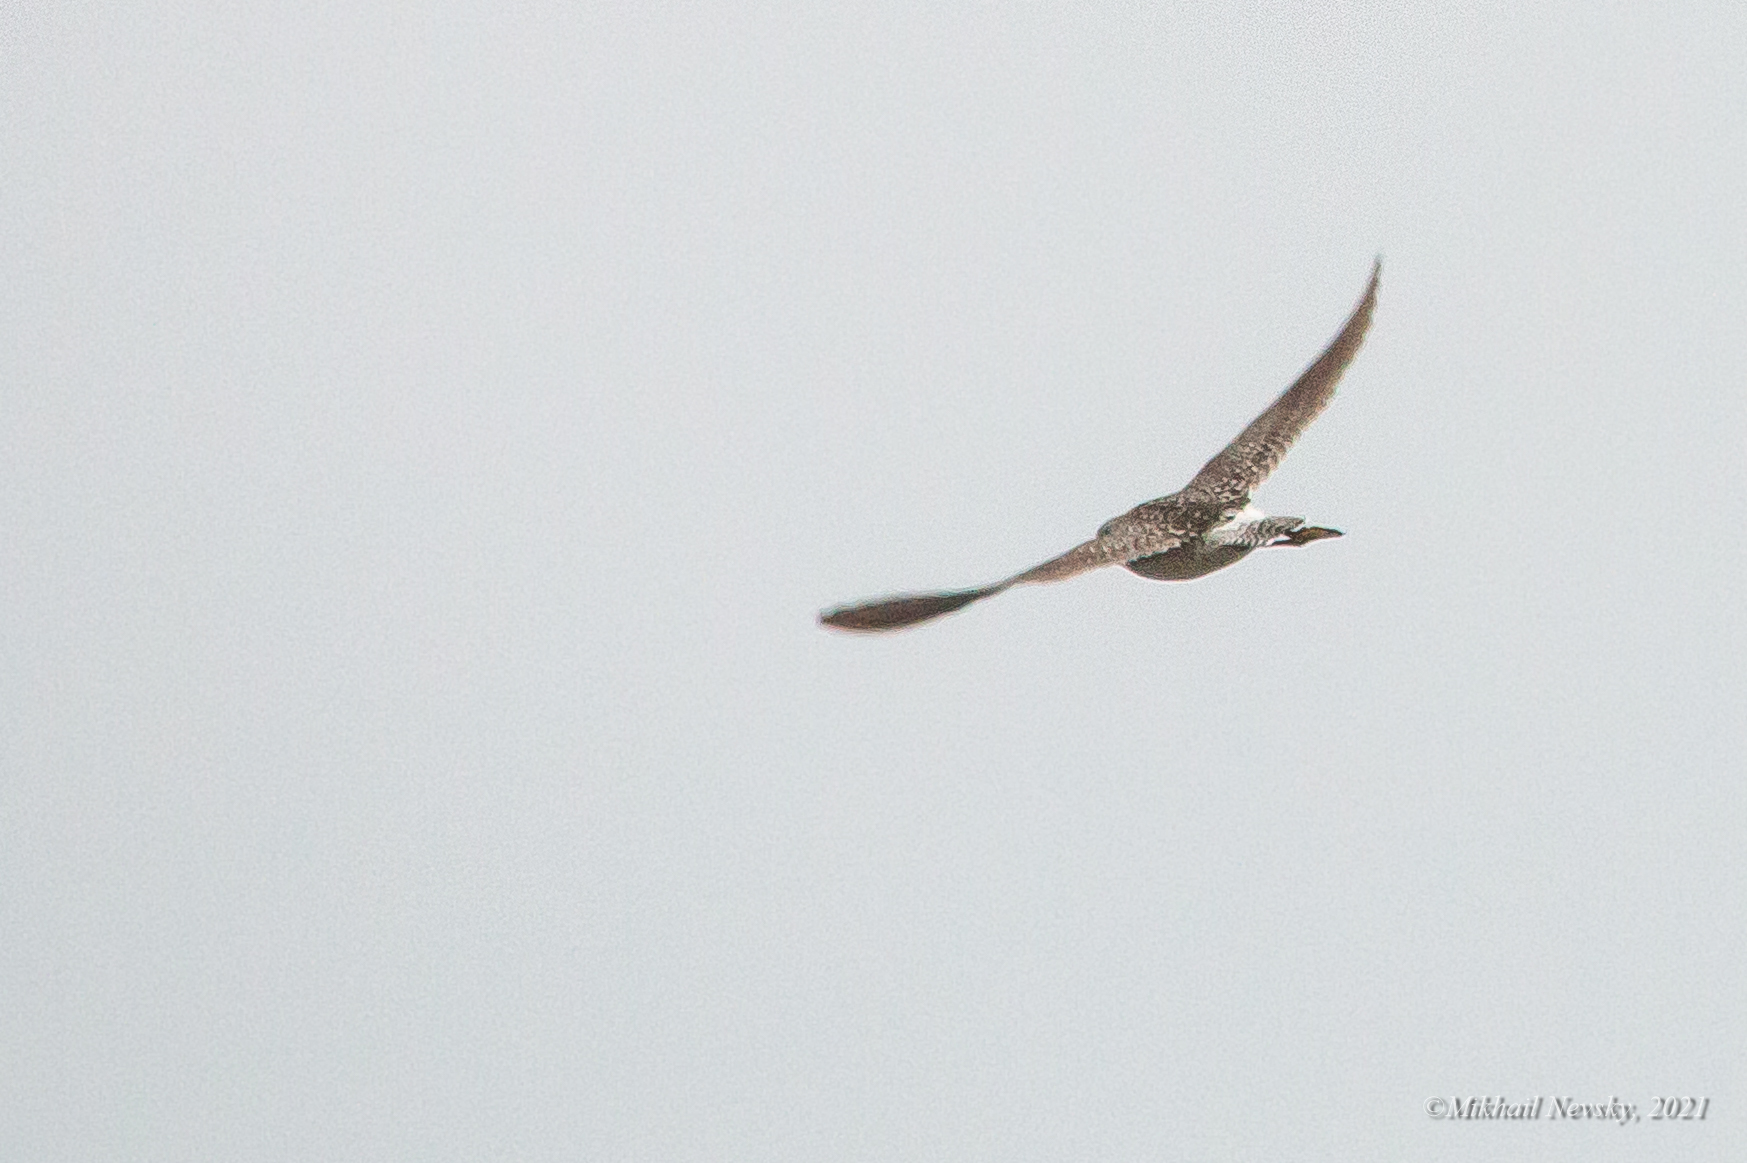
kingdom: Animalia
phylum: Chordata
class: Aves
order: Charadriiformes
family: Scolopacidae
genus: Tringa
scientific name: Tringa glareola
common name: Wood sandpiper
